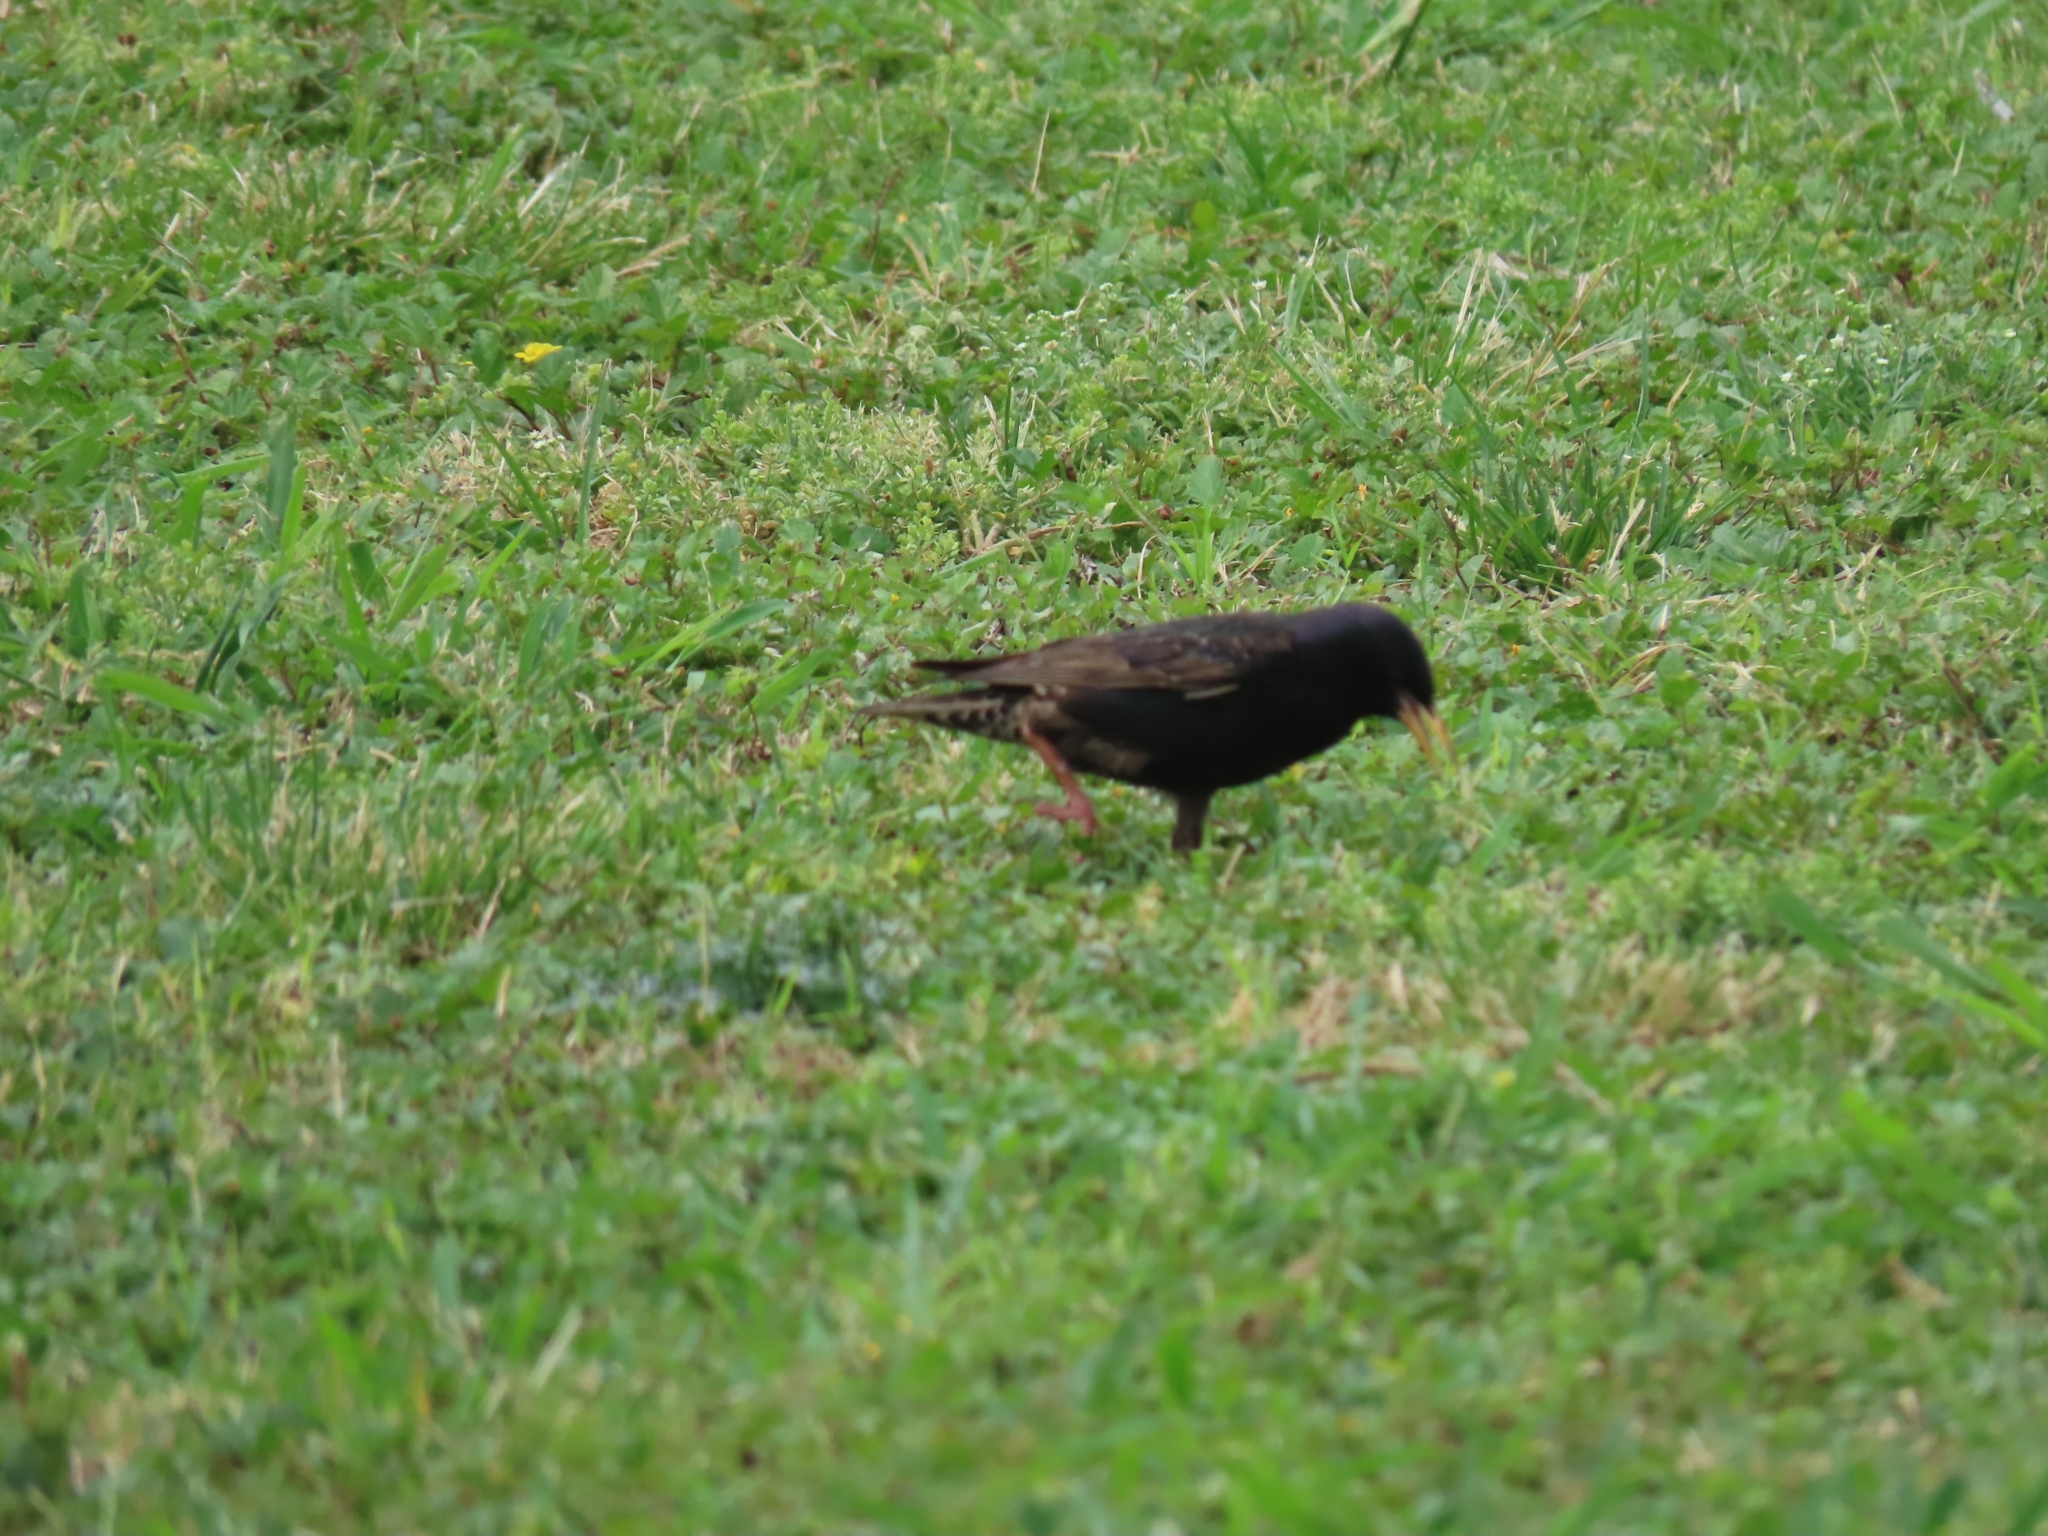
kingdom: Animalia
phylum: Chordata
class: Aves
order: Passeriformes
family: Sturnidae
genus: Sturnus
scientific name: Sturnus vulgaris
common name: Common starling
